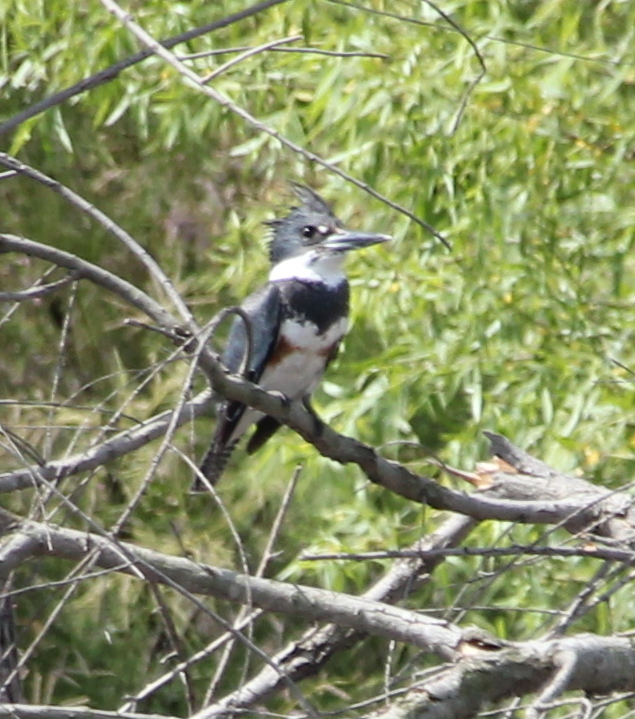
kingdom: Animalia
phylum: Chordata
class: Aves
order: Coraciiformes
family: Alcedinidae
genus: Megaceryle
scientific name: Megaceryle alcyon
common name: Belted kingfisher
